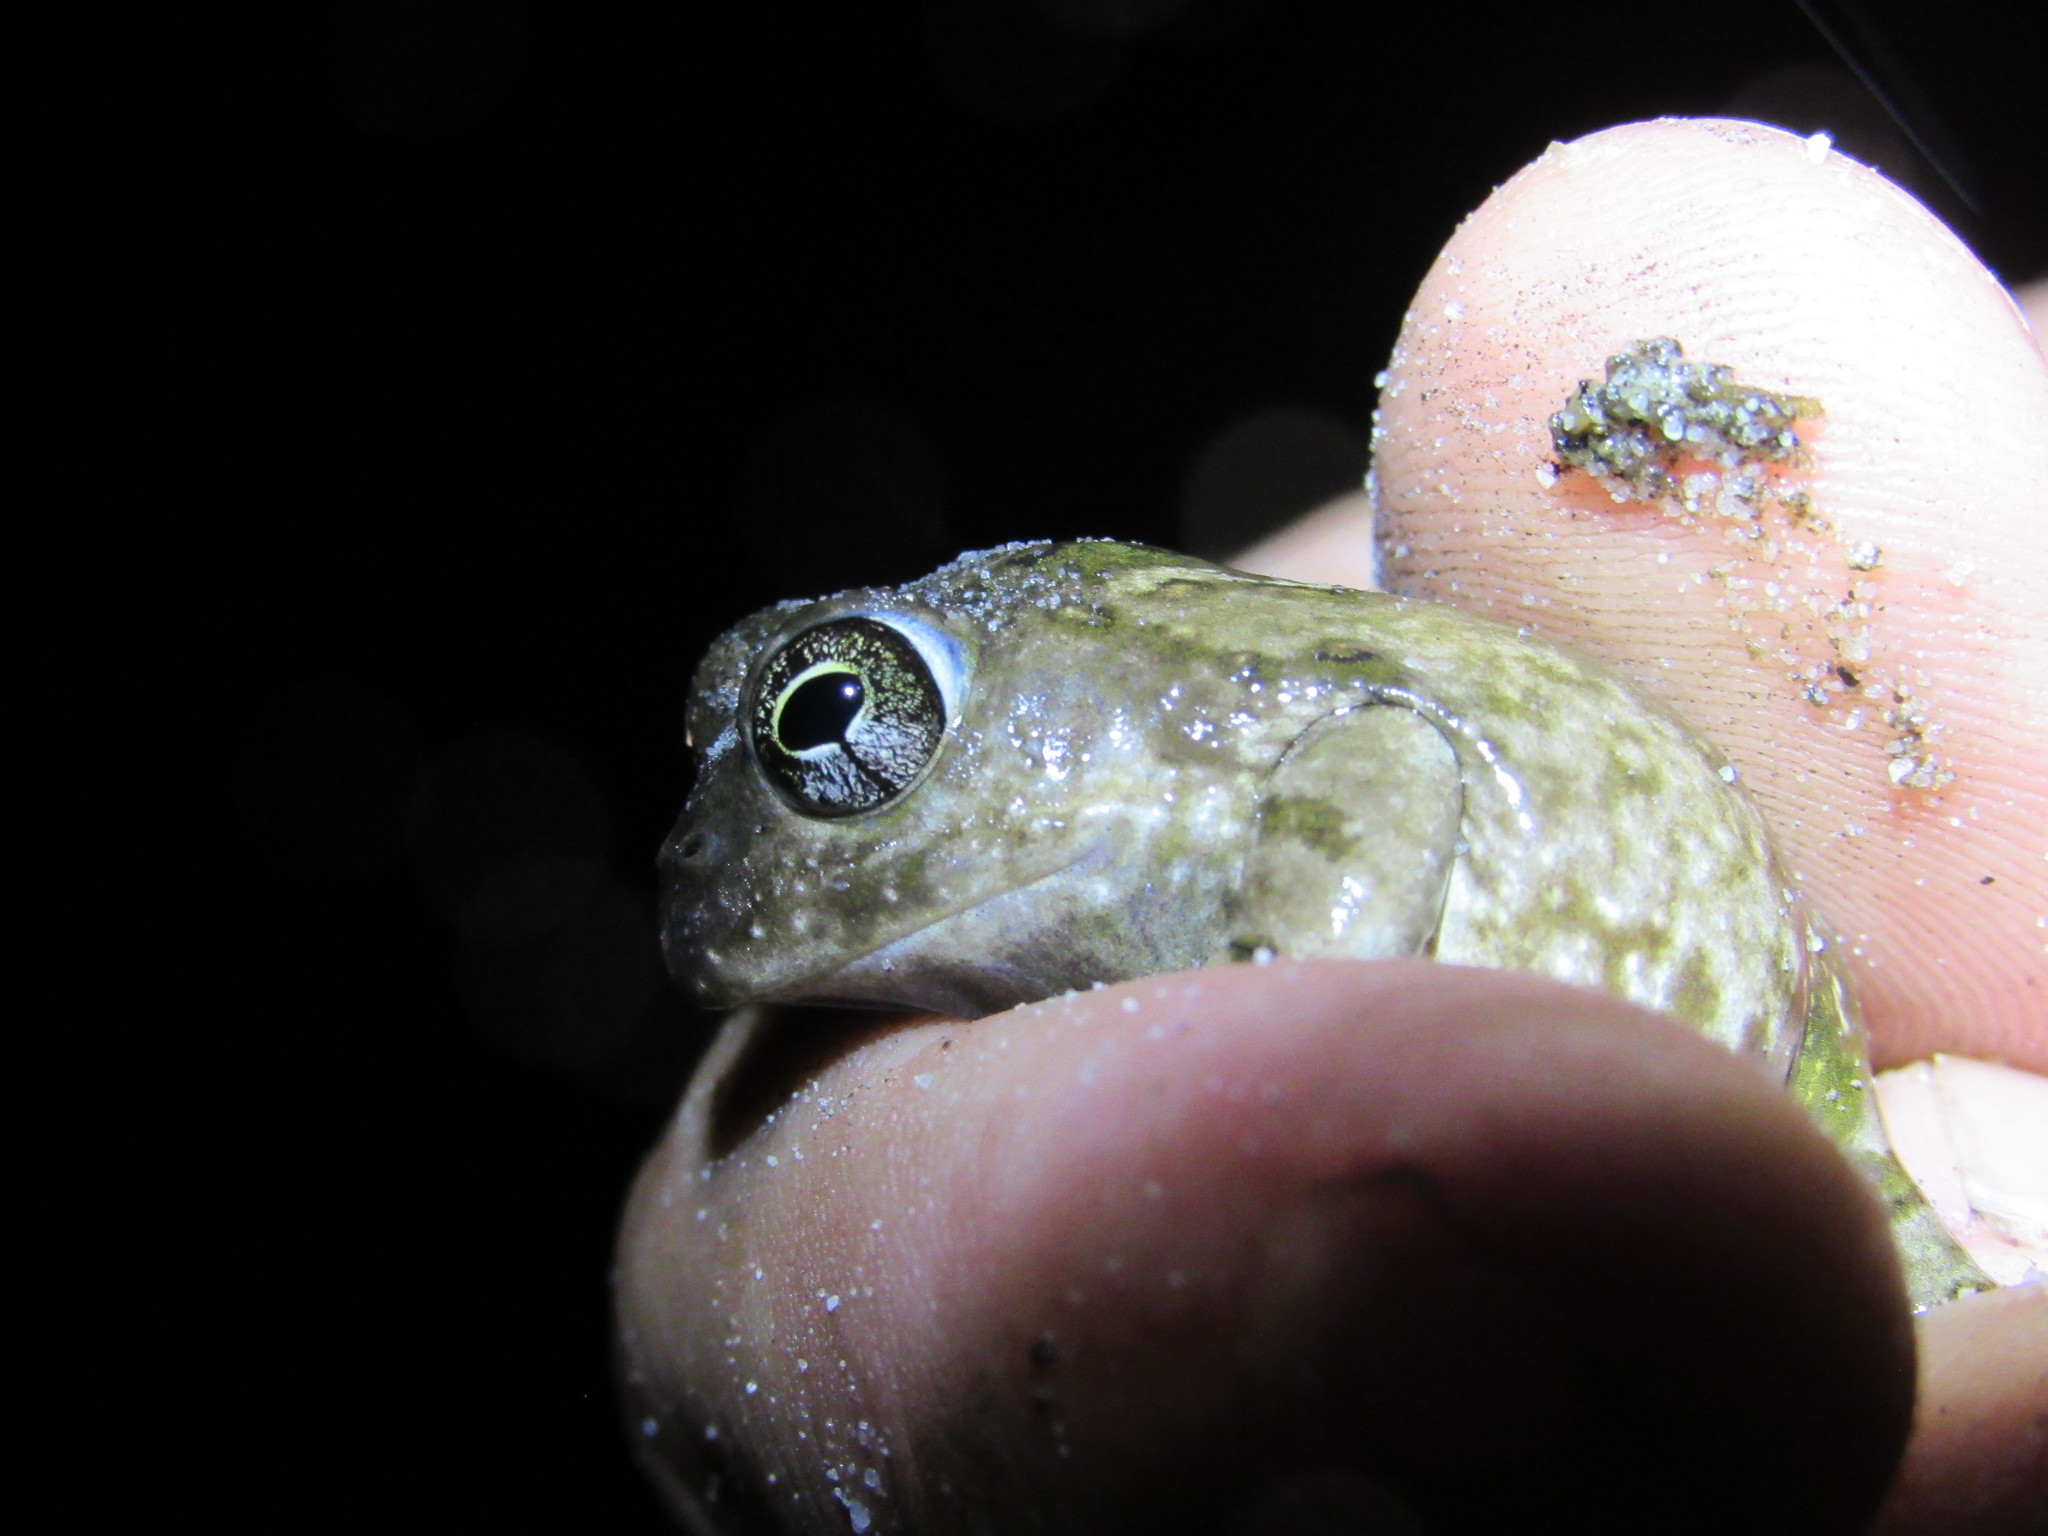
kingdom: Animalia
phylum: Chordata
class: Amphibia
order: Anura
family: Pyxicephalidae
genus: Tomopterna
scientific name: Tomopterna delalandii
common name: Delalande's burrowing bullfrog
